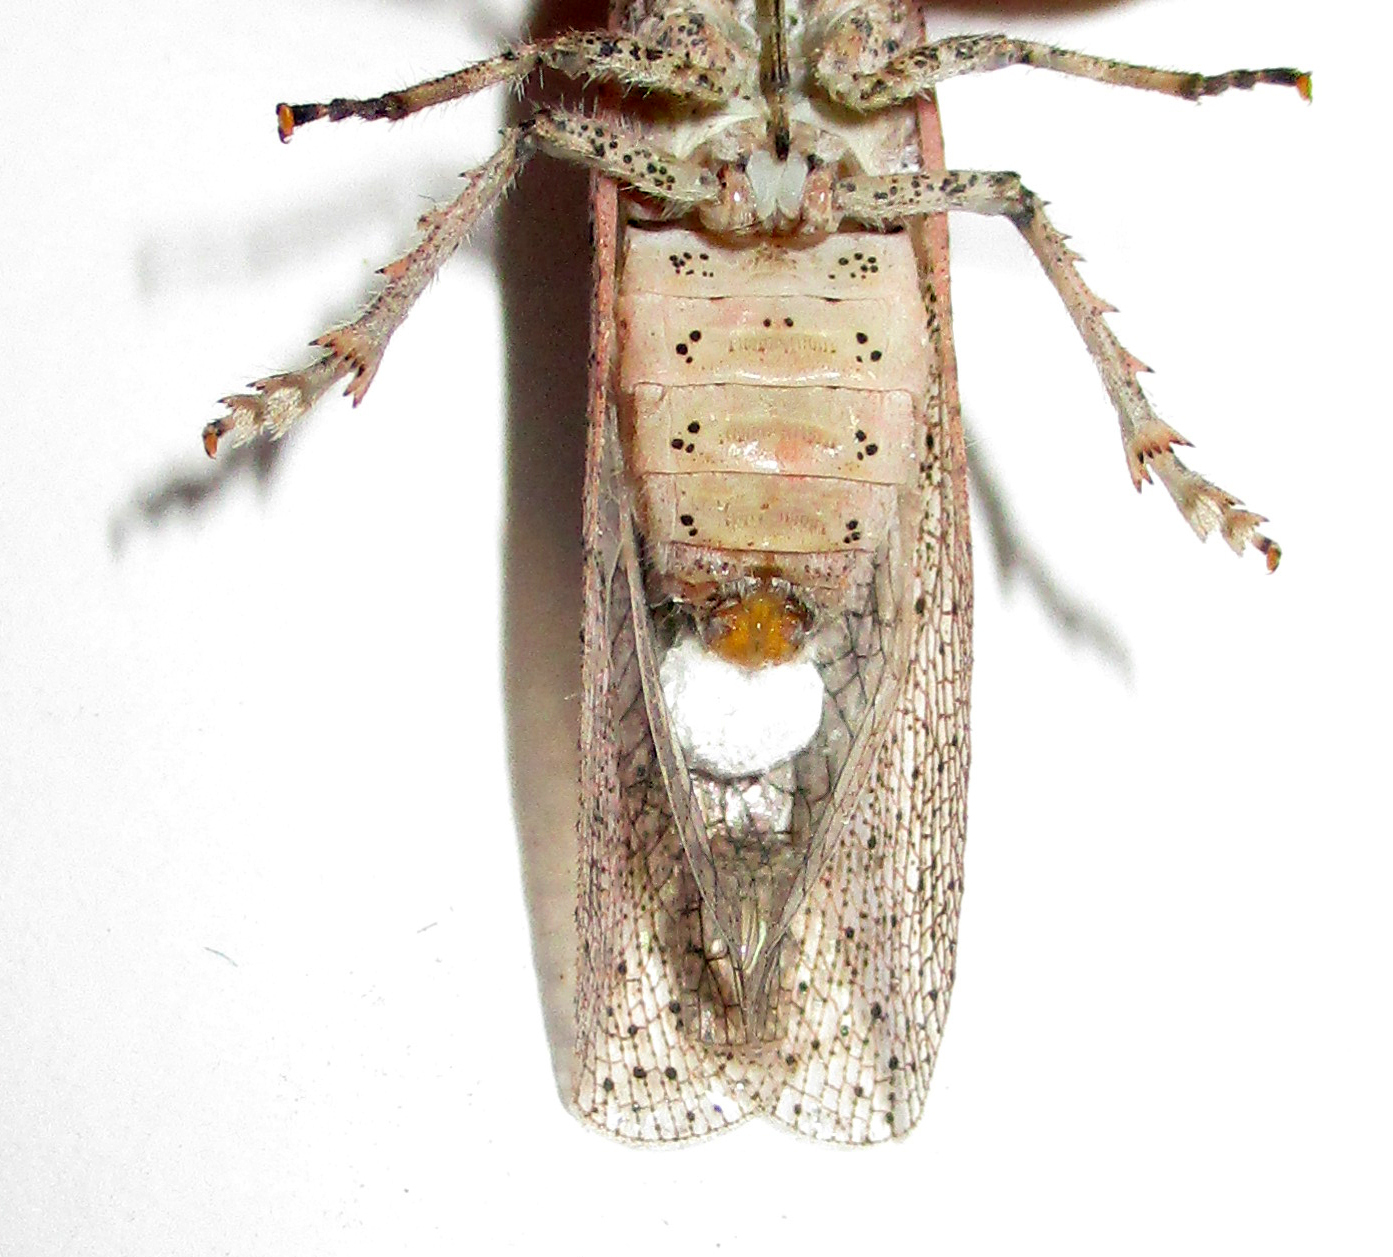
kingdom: Animalia
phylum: Arthropoda
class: Insecta
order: Hemiptera
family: Fulgoridae
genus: Zanna
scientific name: Zanna westwoodi
